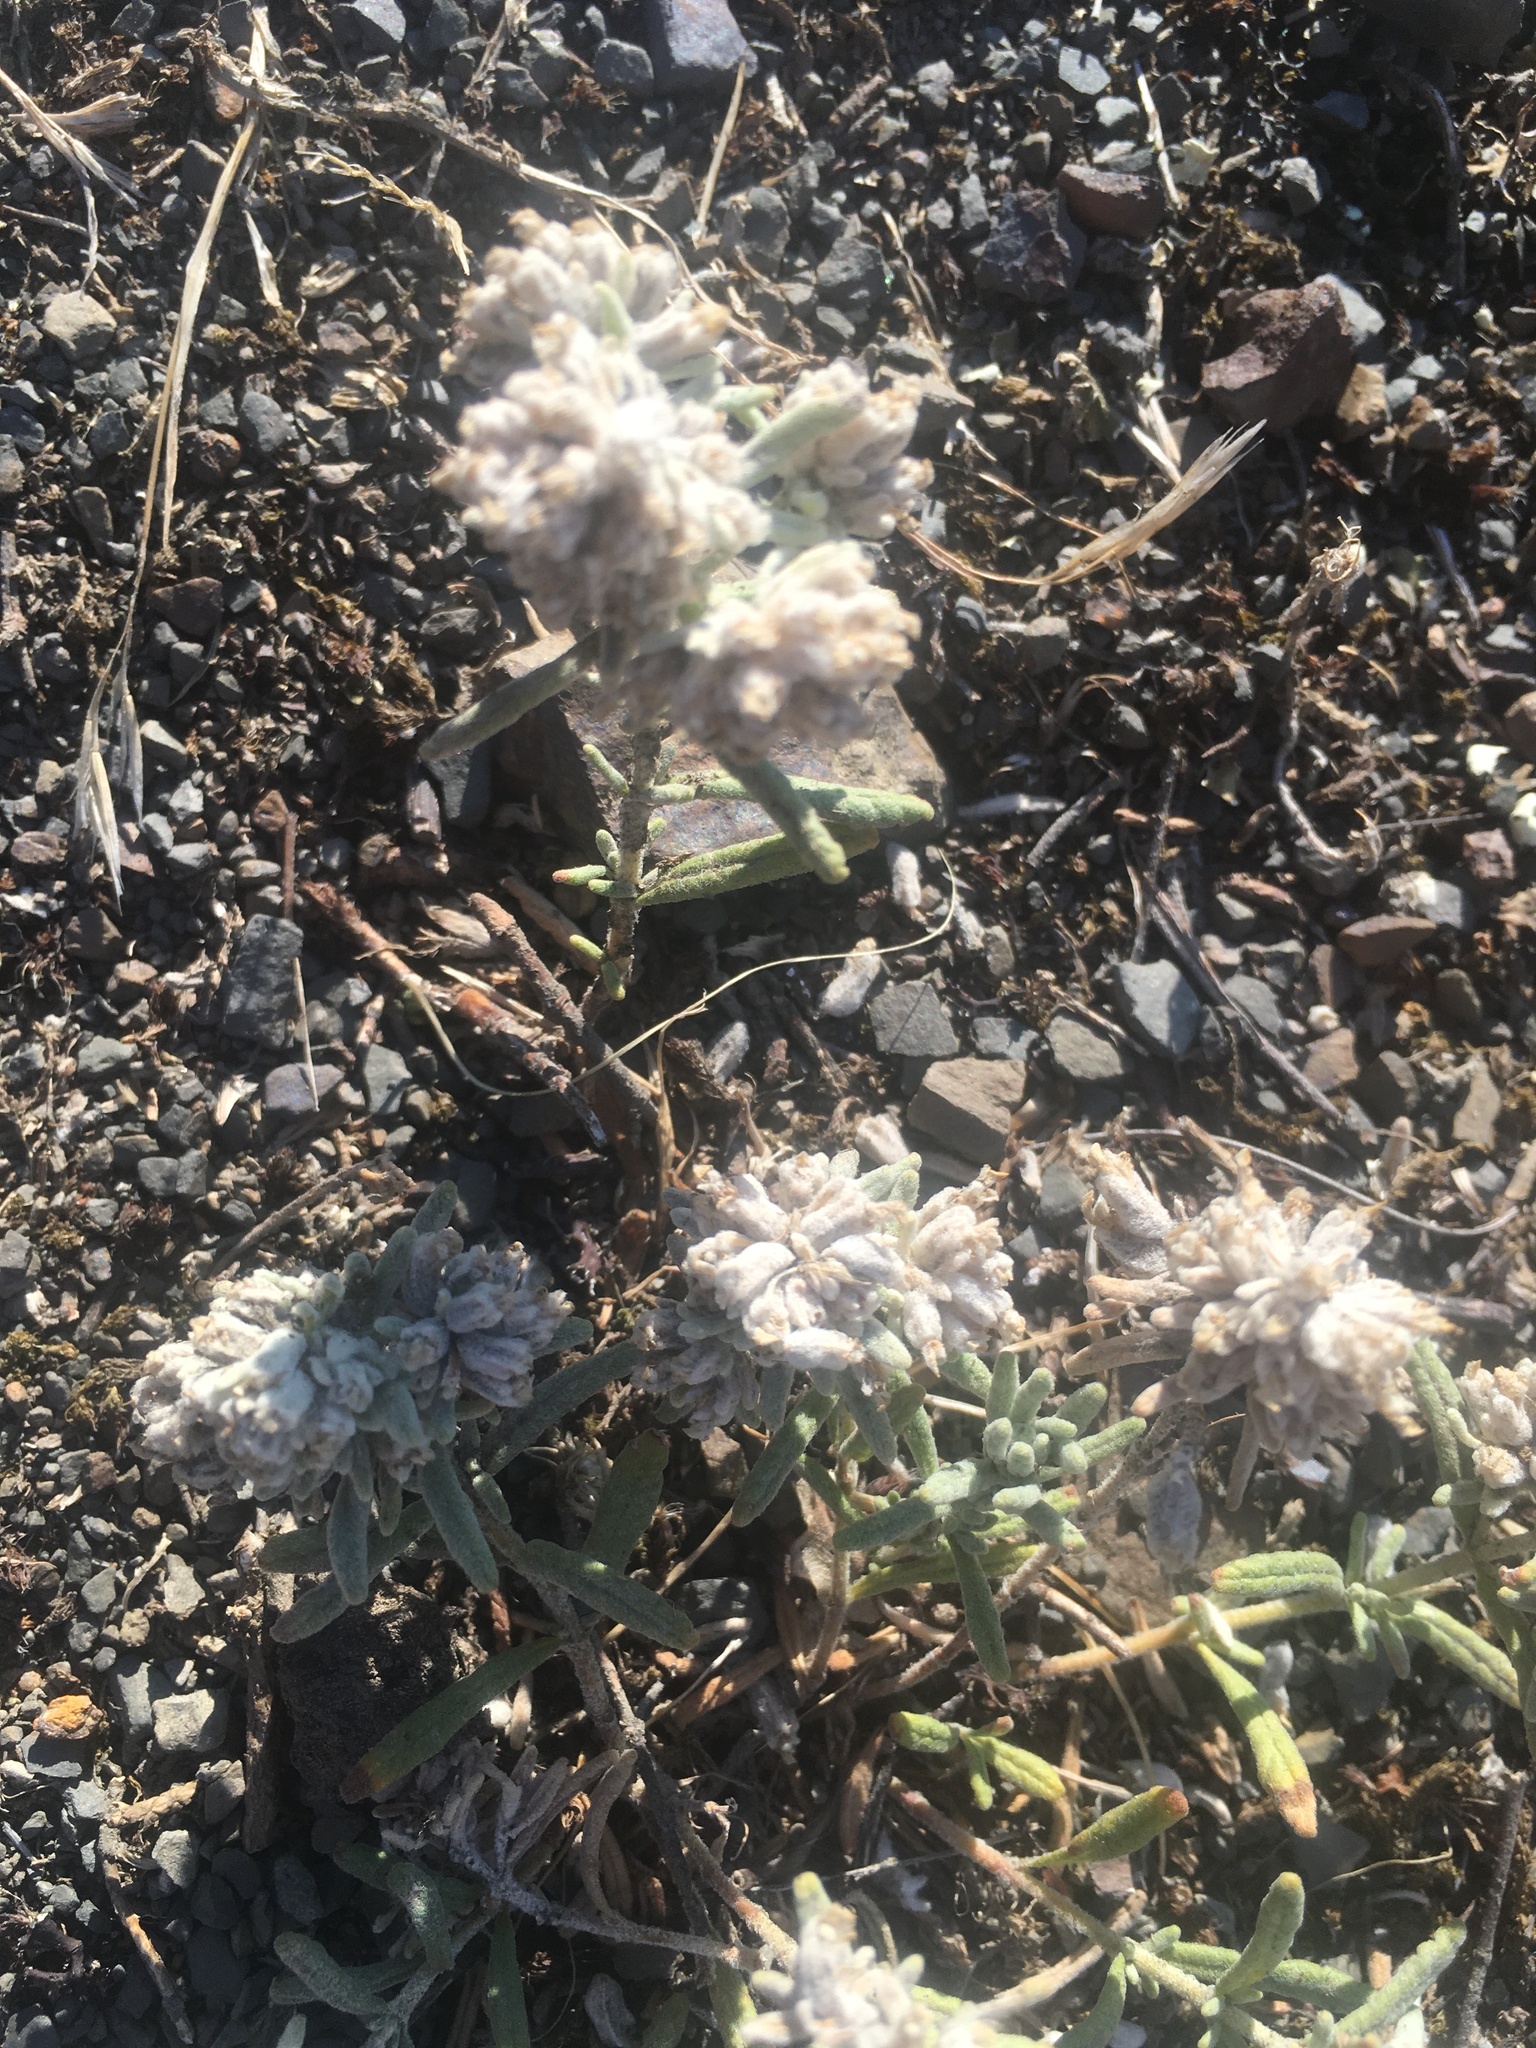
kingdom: Plantae
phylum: Tracheophyta
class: Magnoliopsida
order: Lamiales
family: Lamiaceae
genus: Teucrium
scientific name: Teucrium polium
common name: Poley
